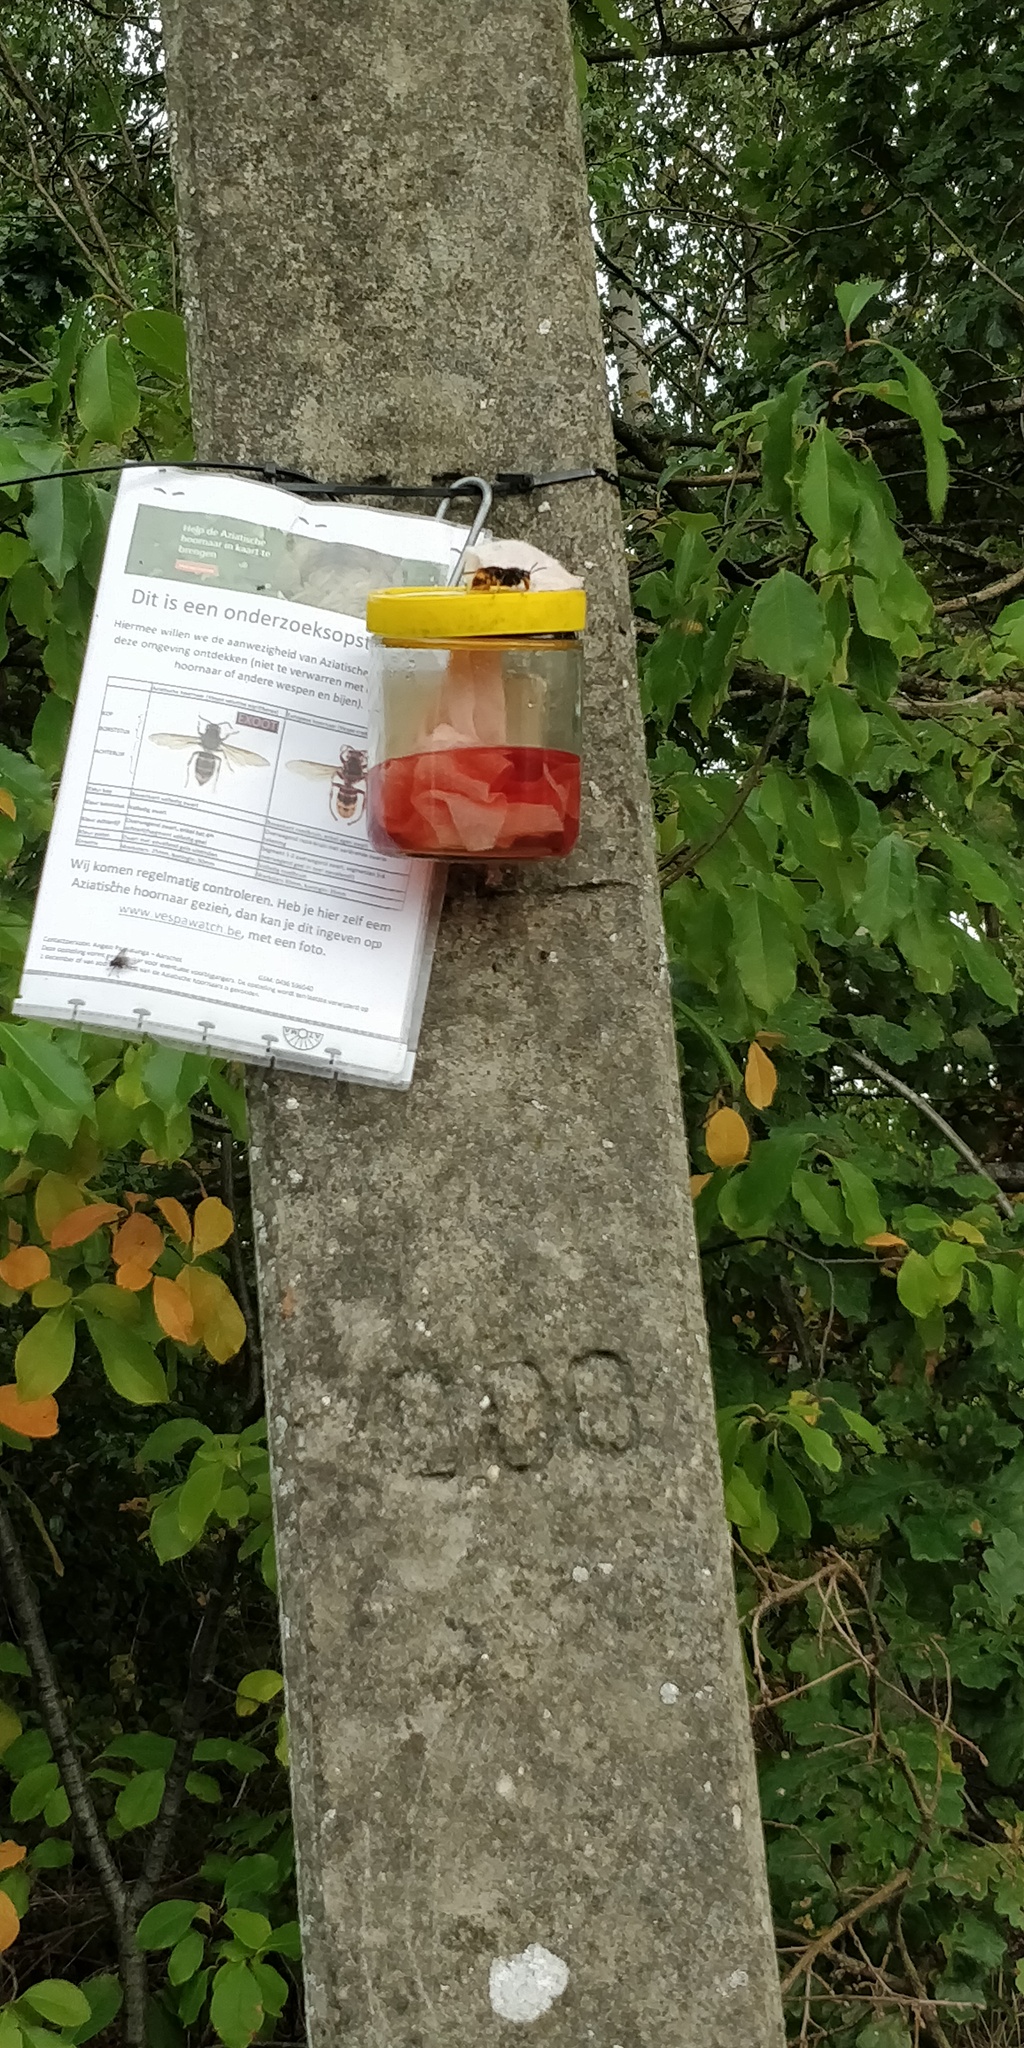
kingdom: Animalia
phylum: Arthropoda
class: Insecta
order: Hymenoptera
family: Vespidae
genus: Vespa
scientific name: Vespa velutina
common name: Asian hornet
